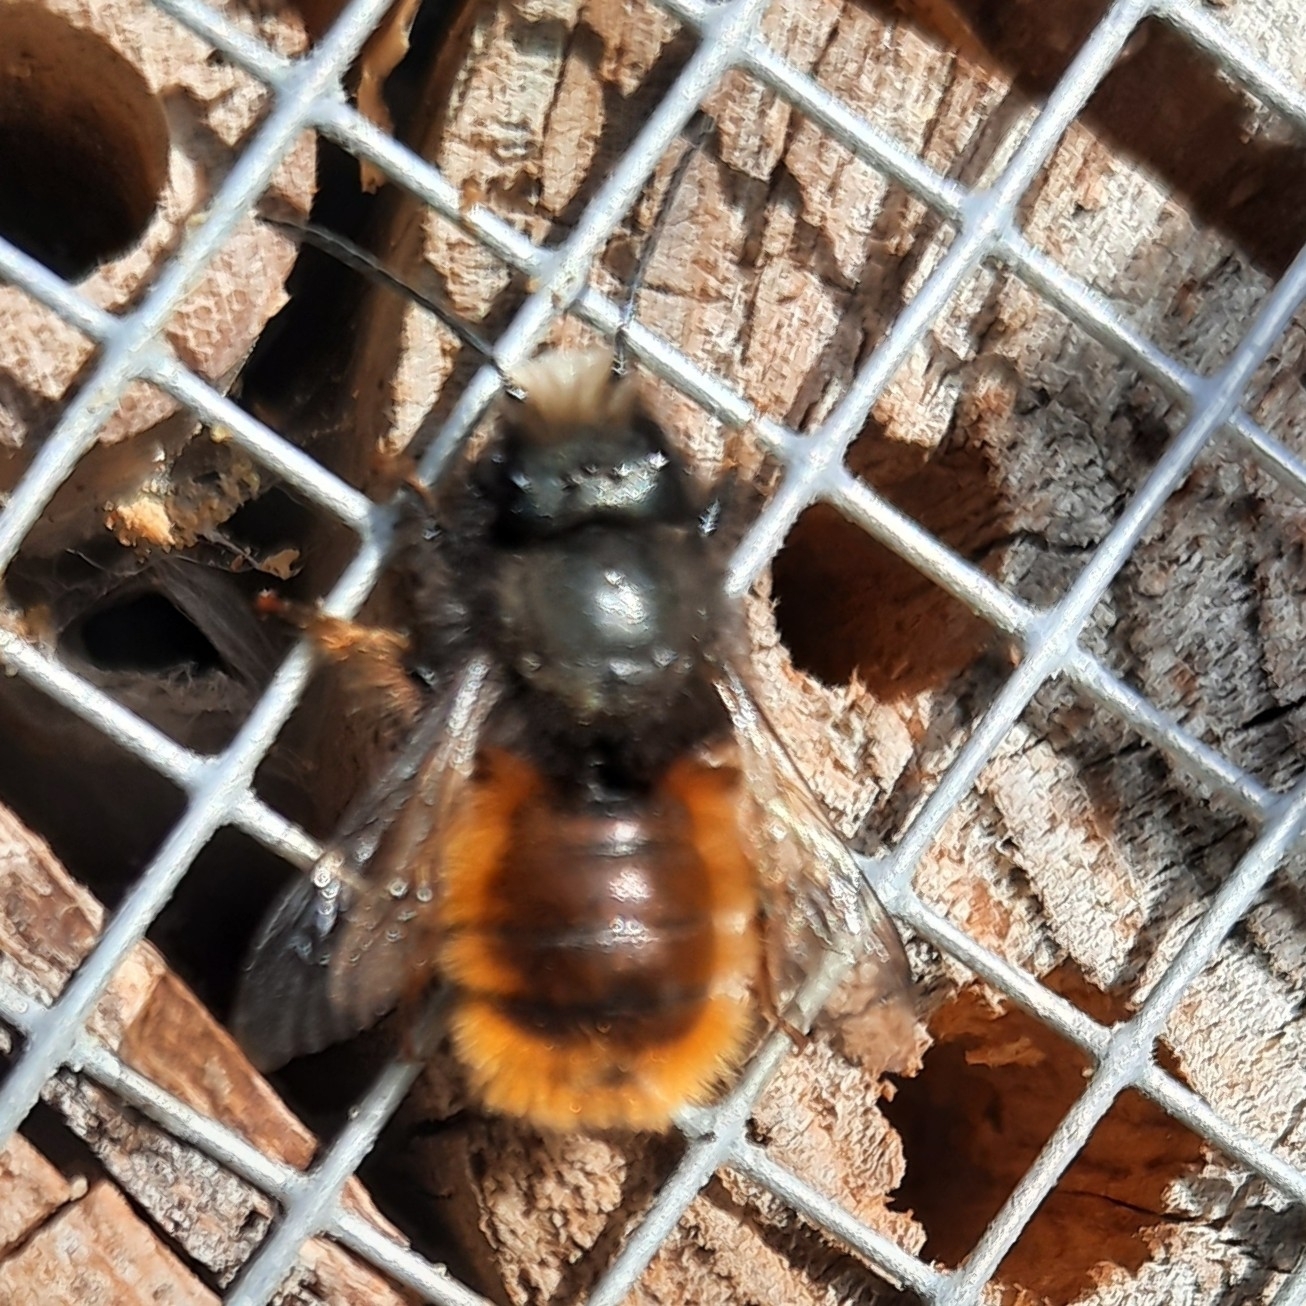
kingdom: Animalia
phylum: Arthropoda
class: Insecta
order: Hymenoptera
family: Megachilidae
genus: Osmia
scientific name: Osmia cornuta
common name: Mason bee
